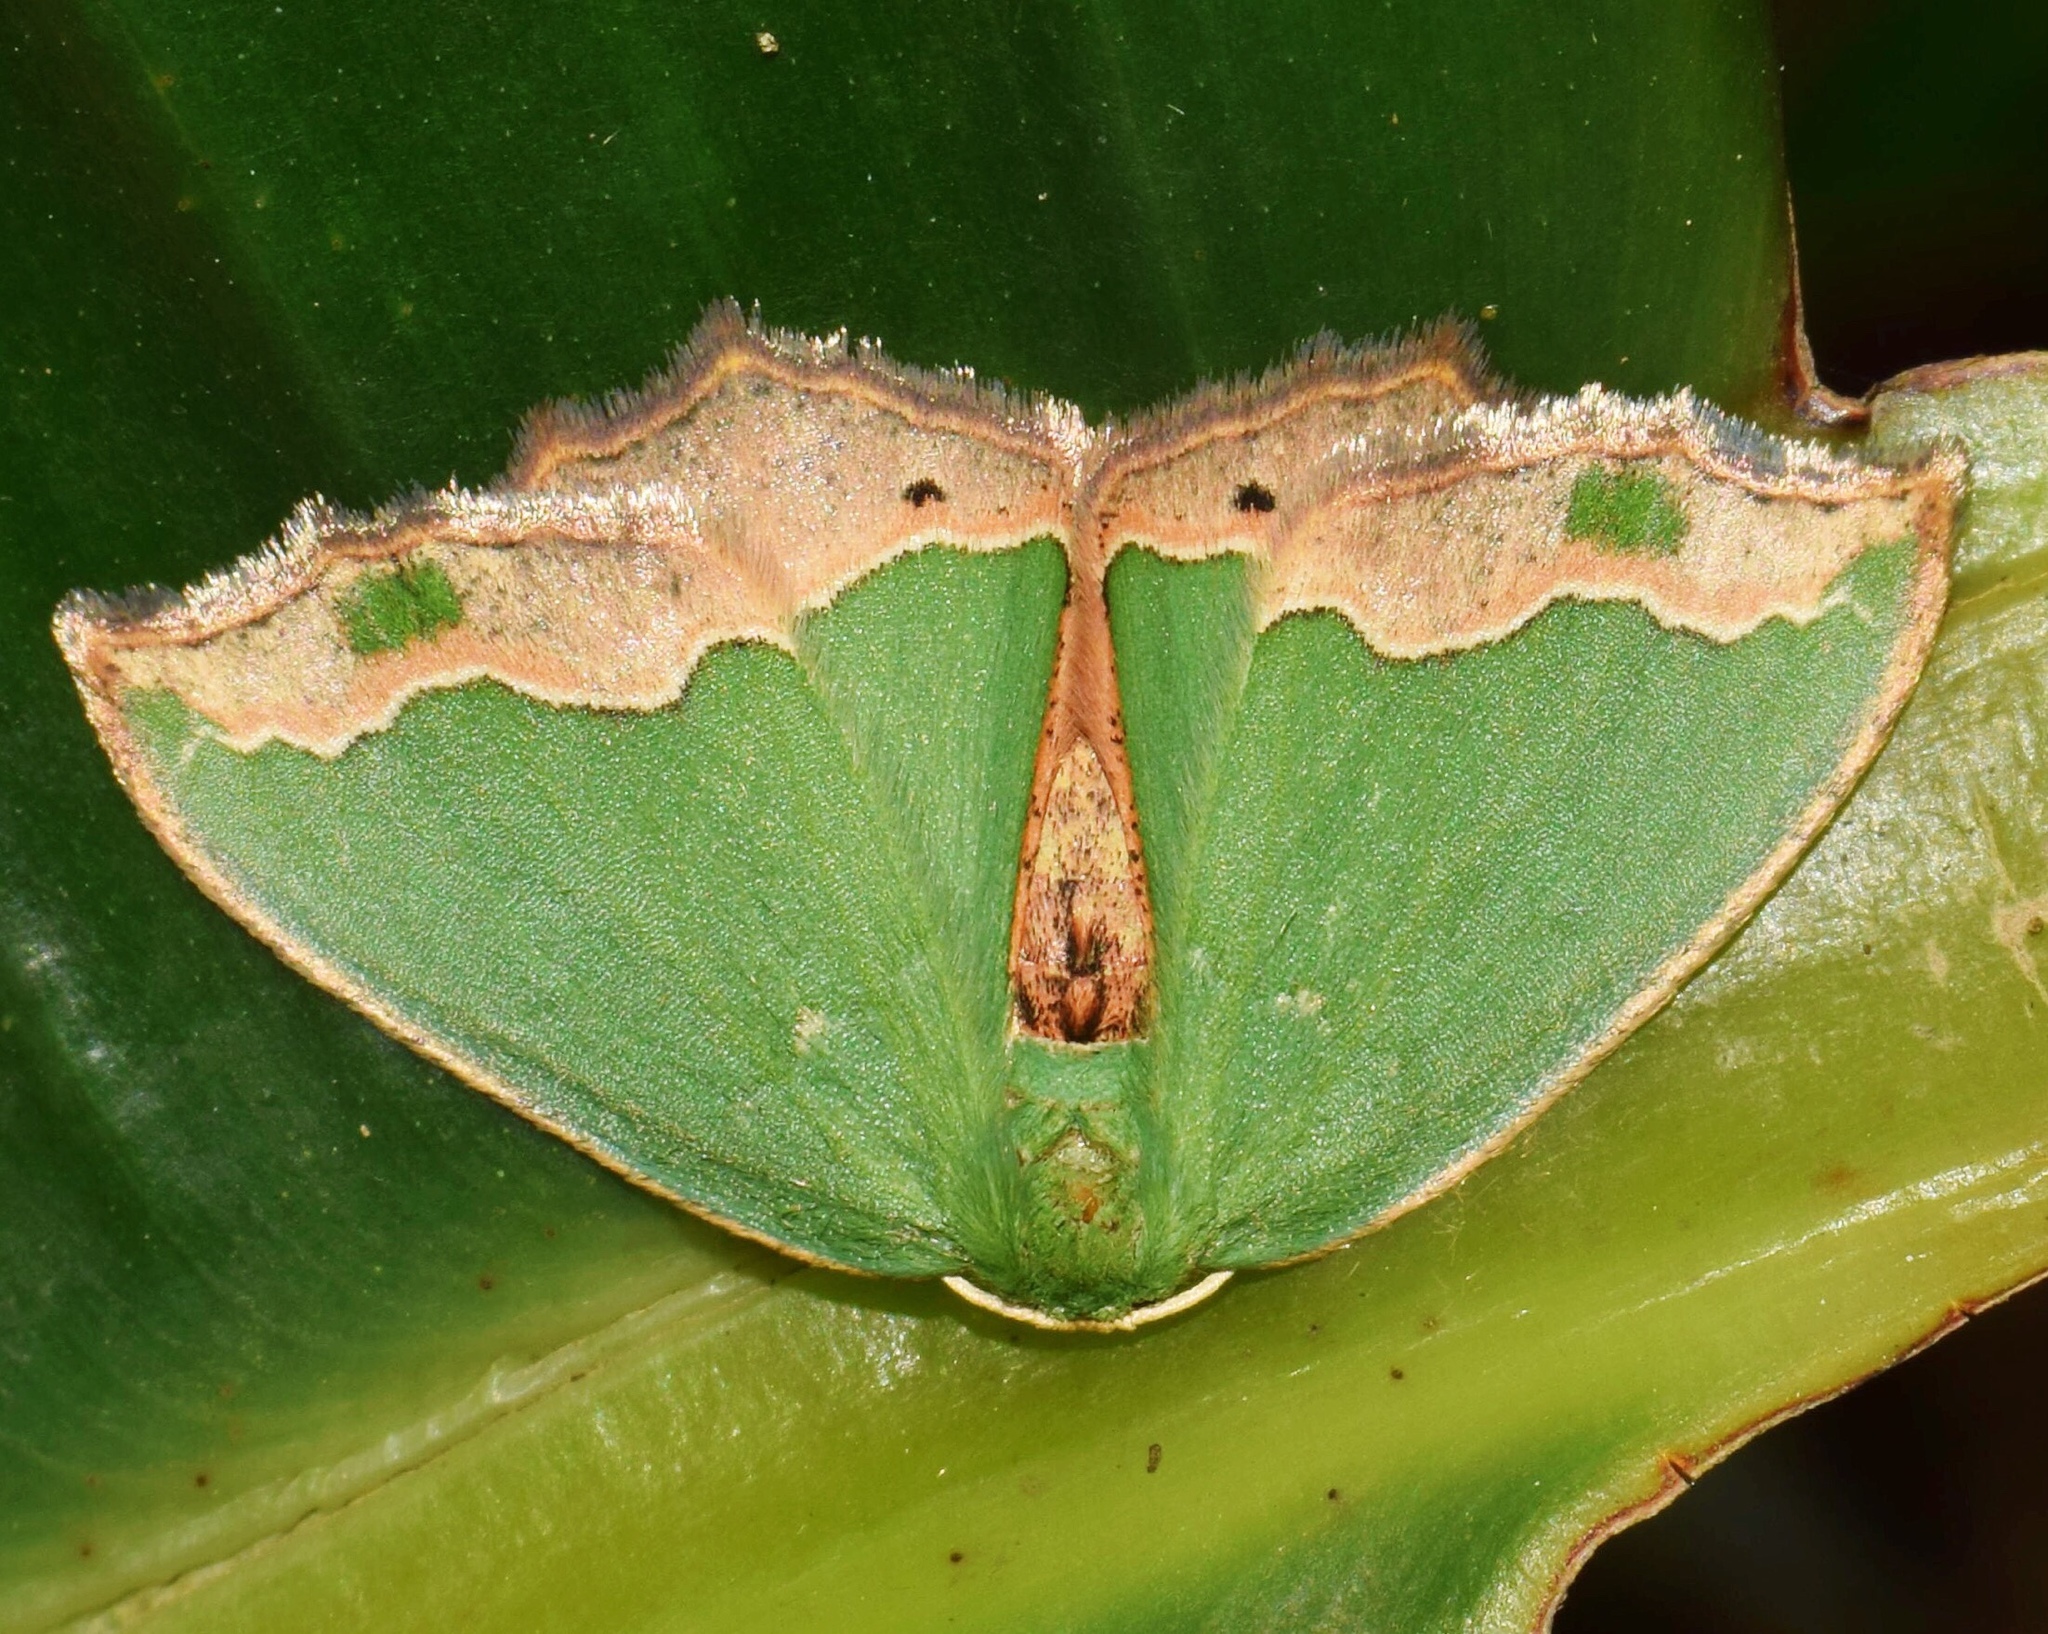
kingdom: Animalia
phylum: Arthropoda
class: Insecta
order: Lepidoptera
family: Geometridae
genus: Bathycolpodes
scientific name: Bathycolpodes chloronesis
